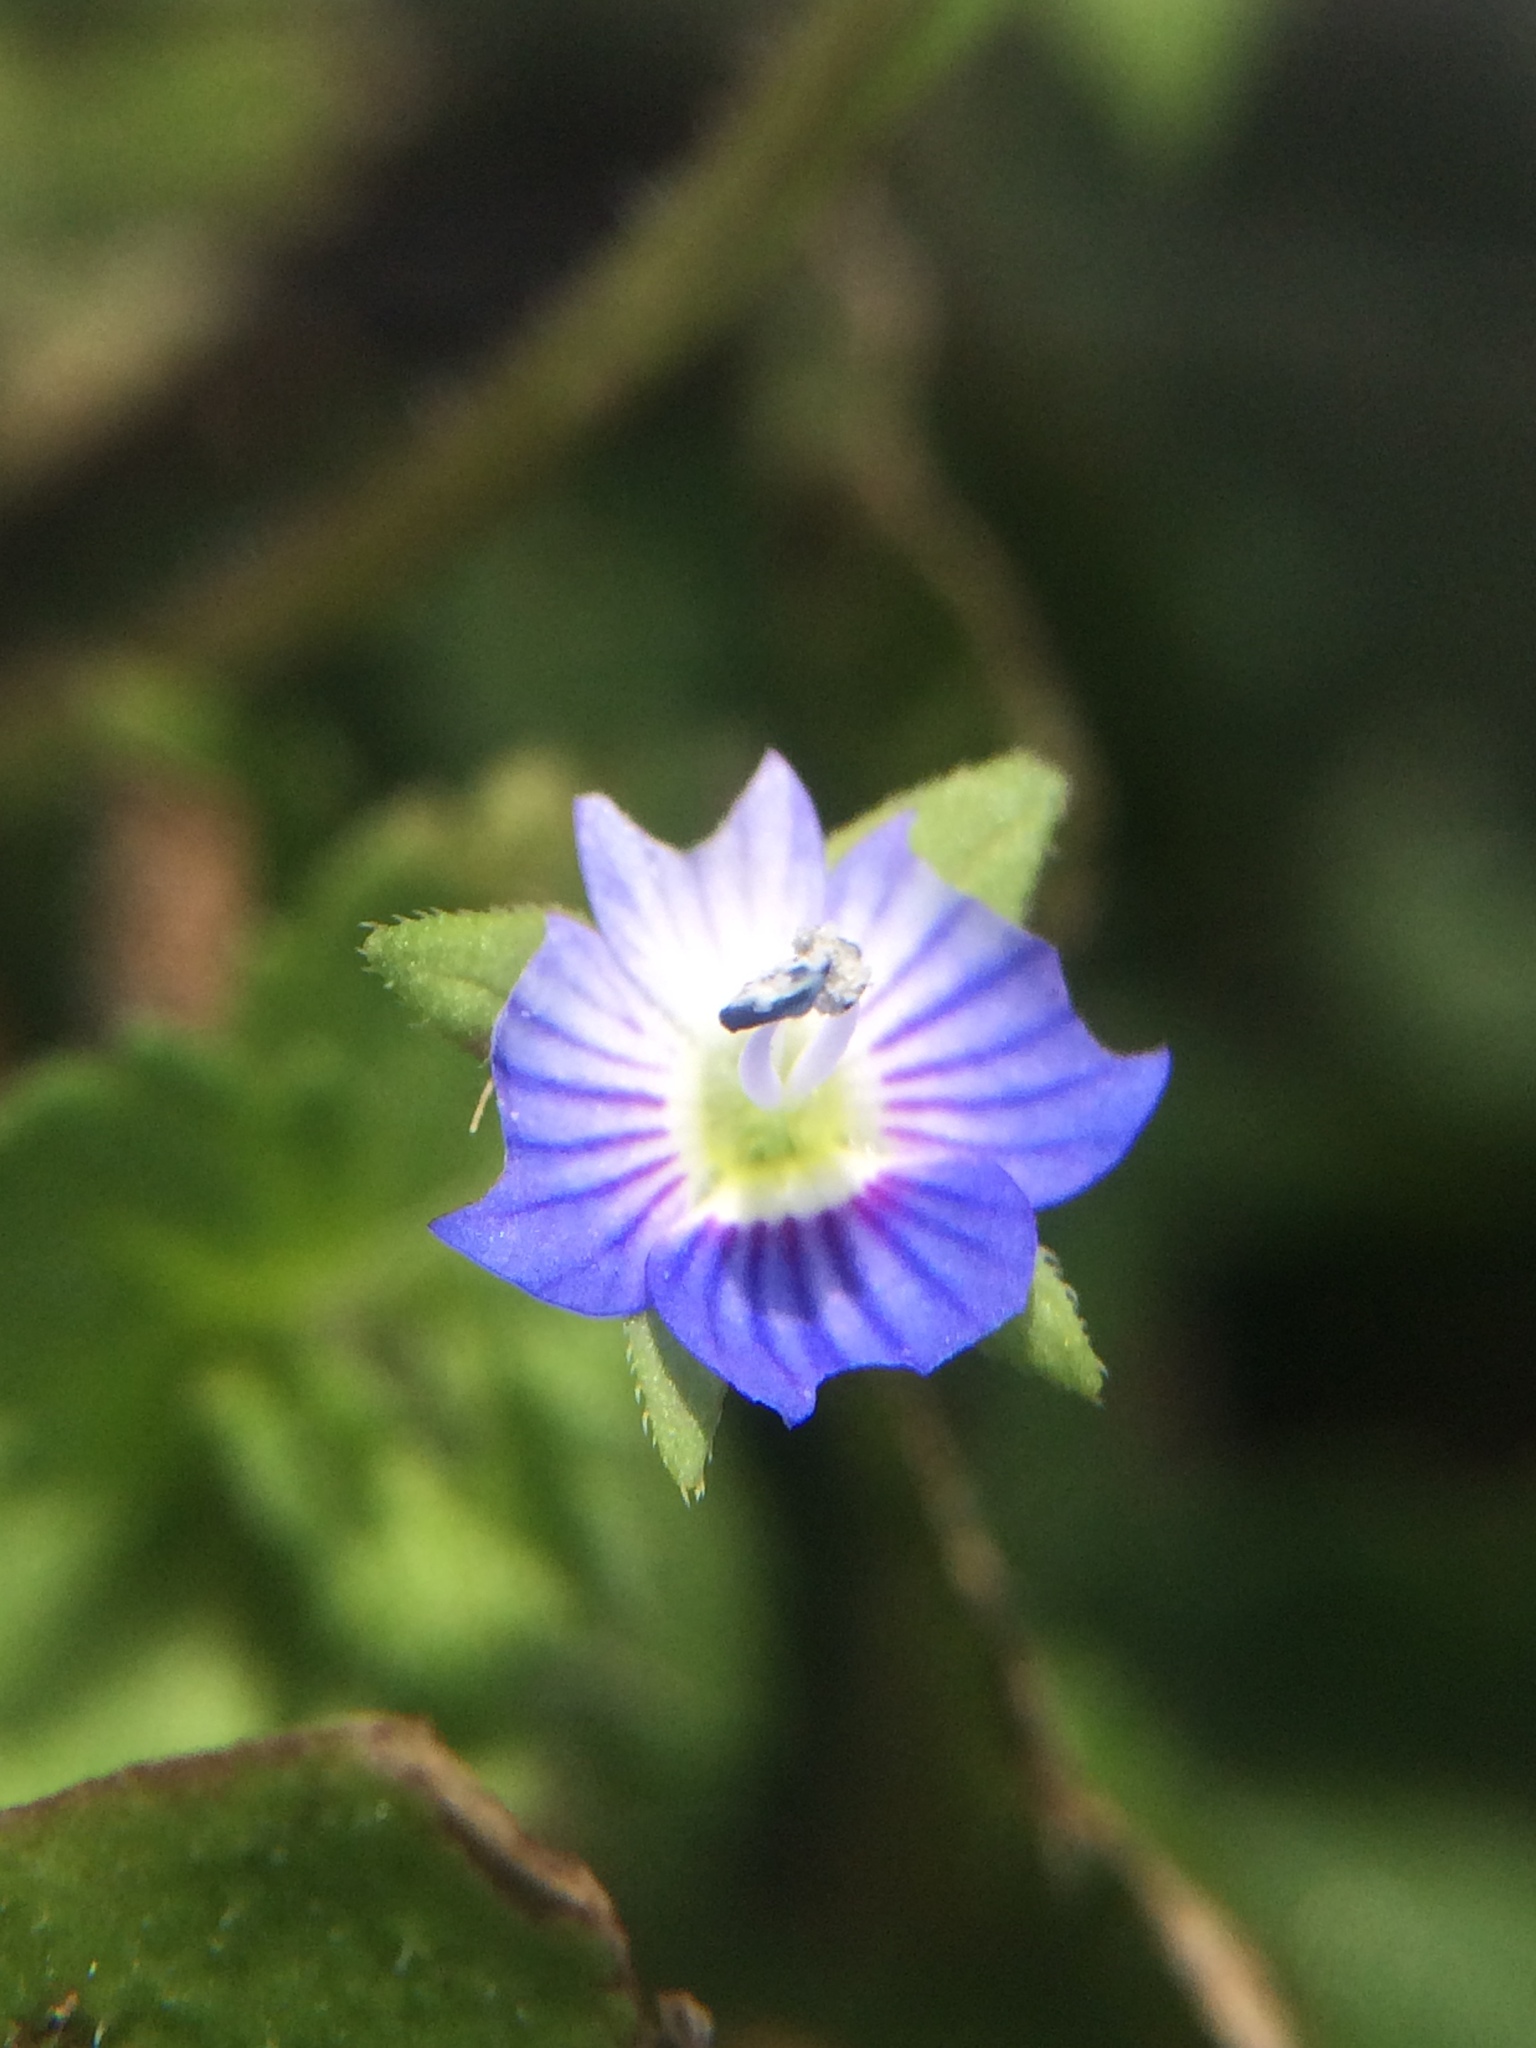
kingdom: Plantae
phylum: Tracheophyta
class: Magnoliopsida
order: Lamiales
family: Plantaginaceae
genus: Veronica
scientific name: Veronica persica
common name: Common field-speedwell
